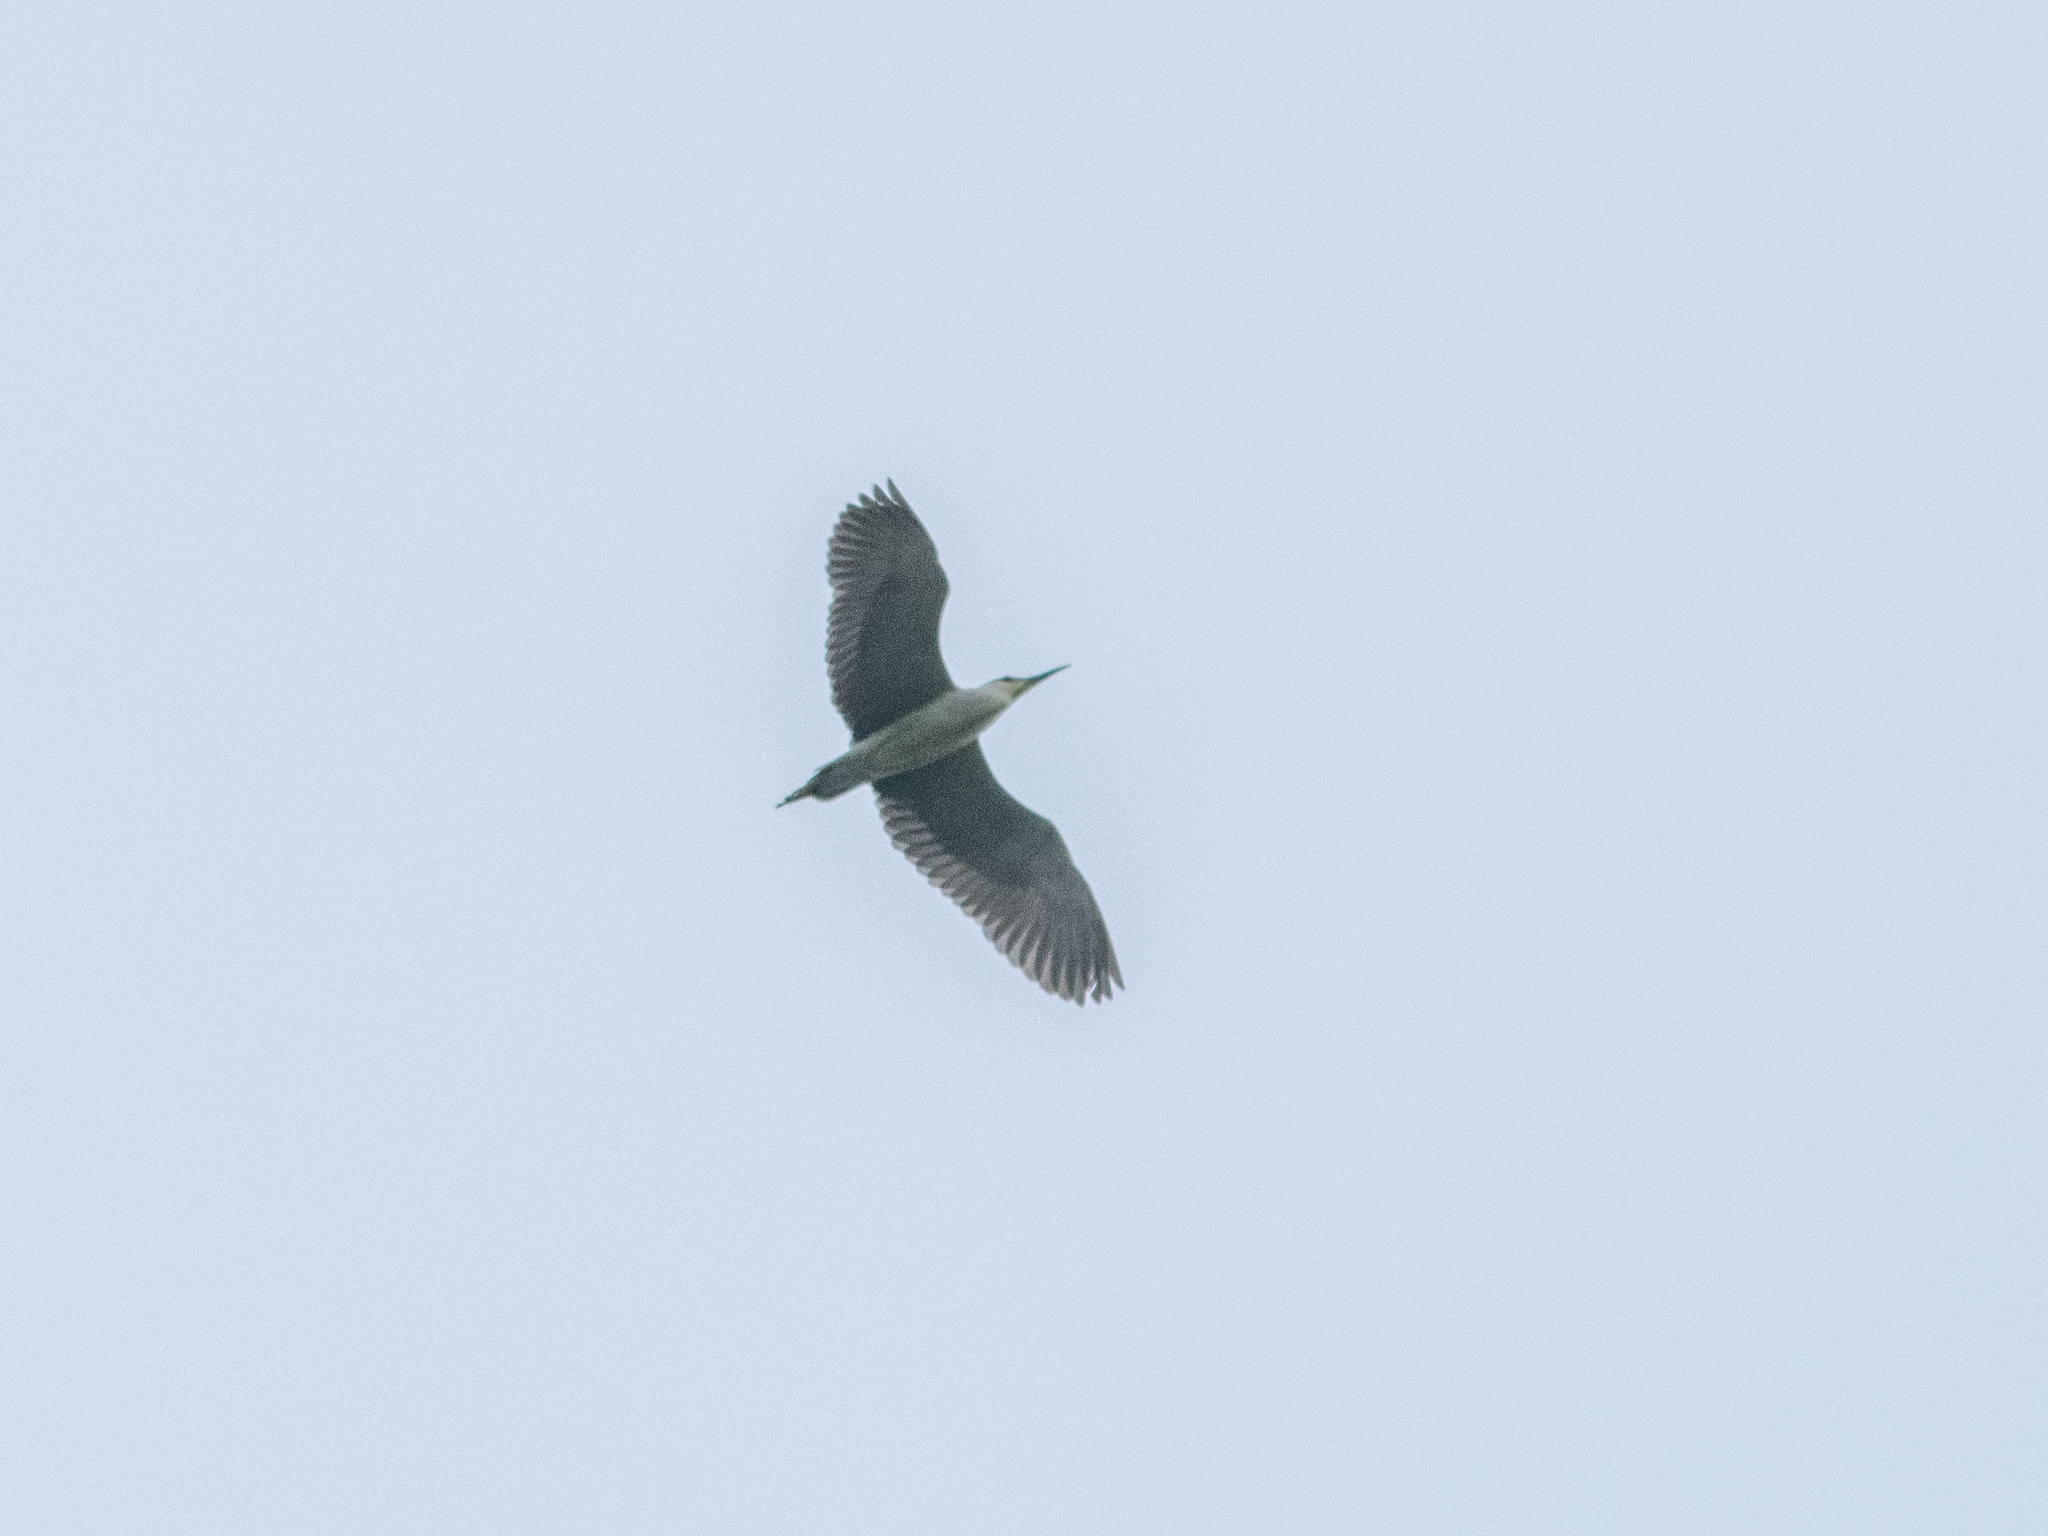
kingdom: Animalia
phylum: Chordata
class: Aves
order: Pelecaniformes
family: Ardeidae
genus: Nycticorax
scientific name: Nycticorax nycticorax
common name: Black-crowned night heron
